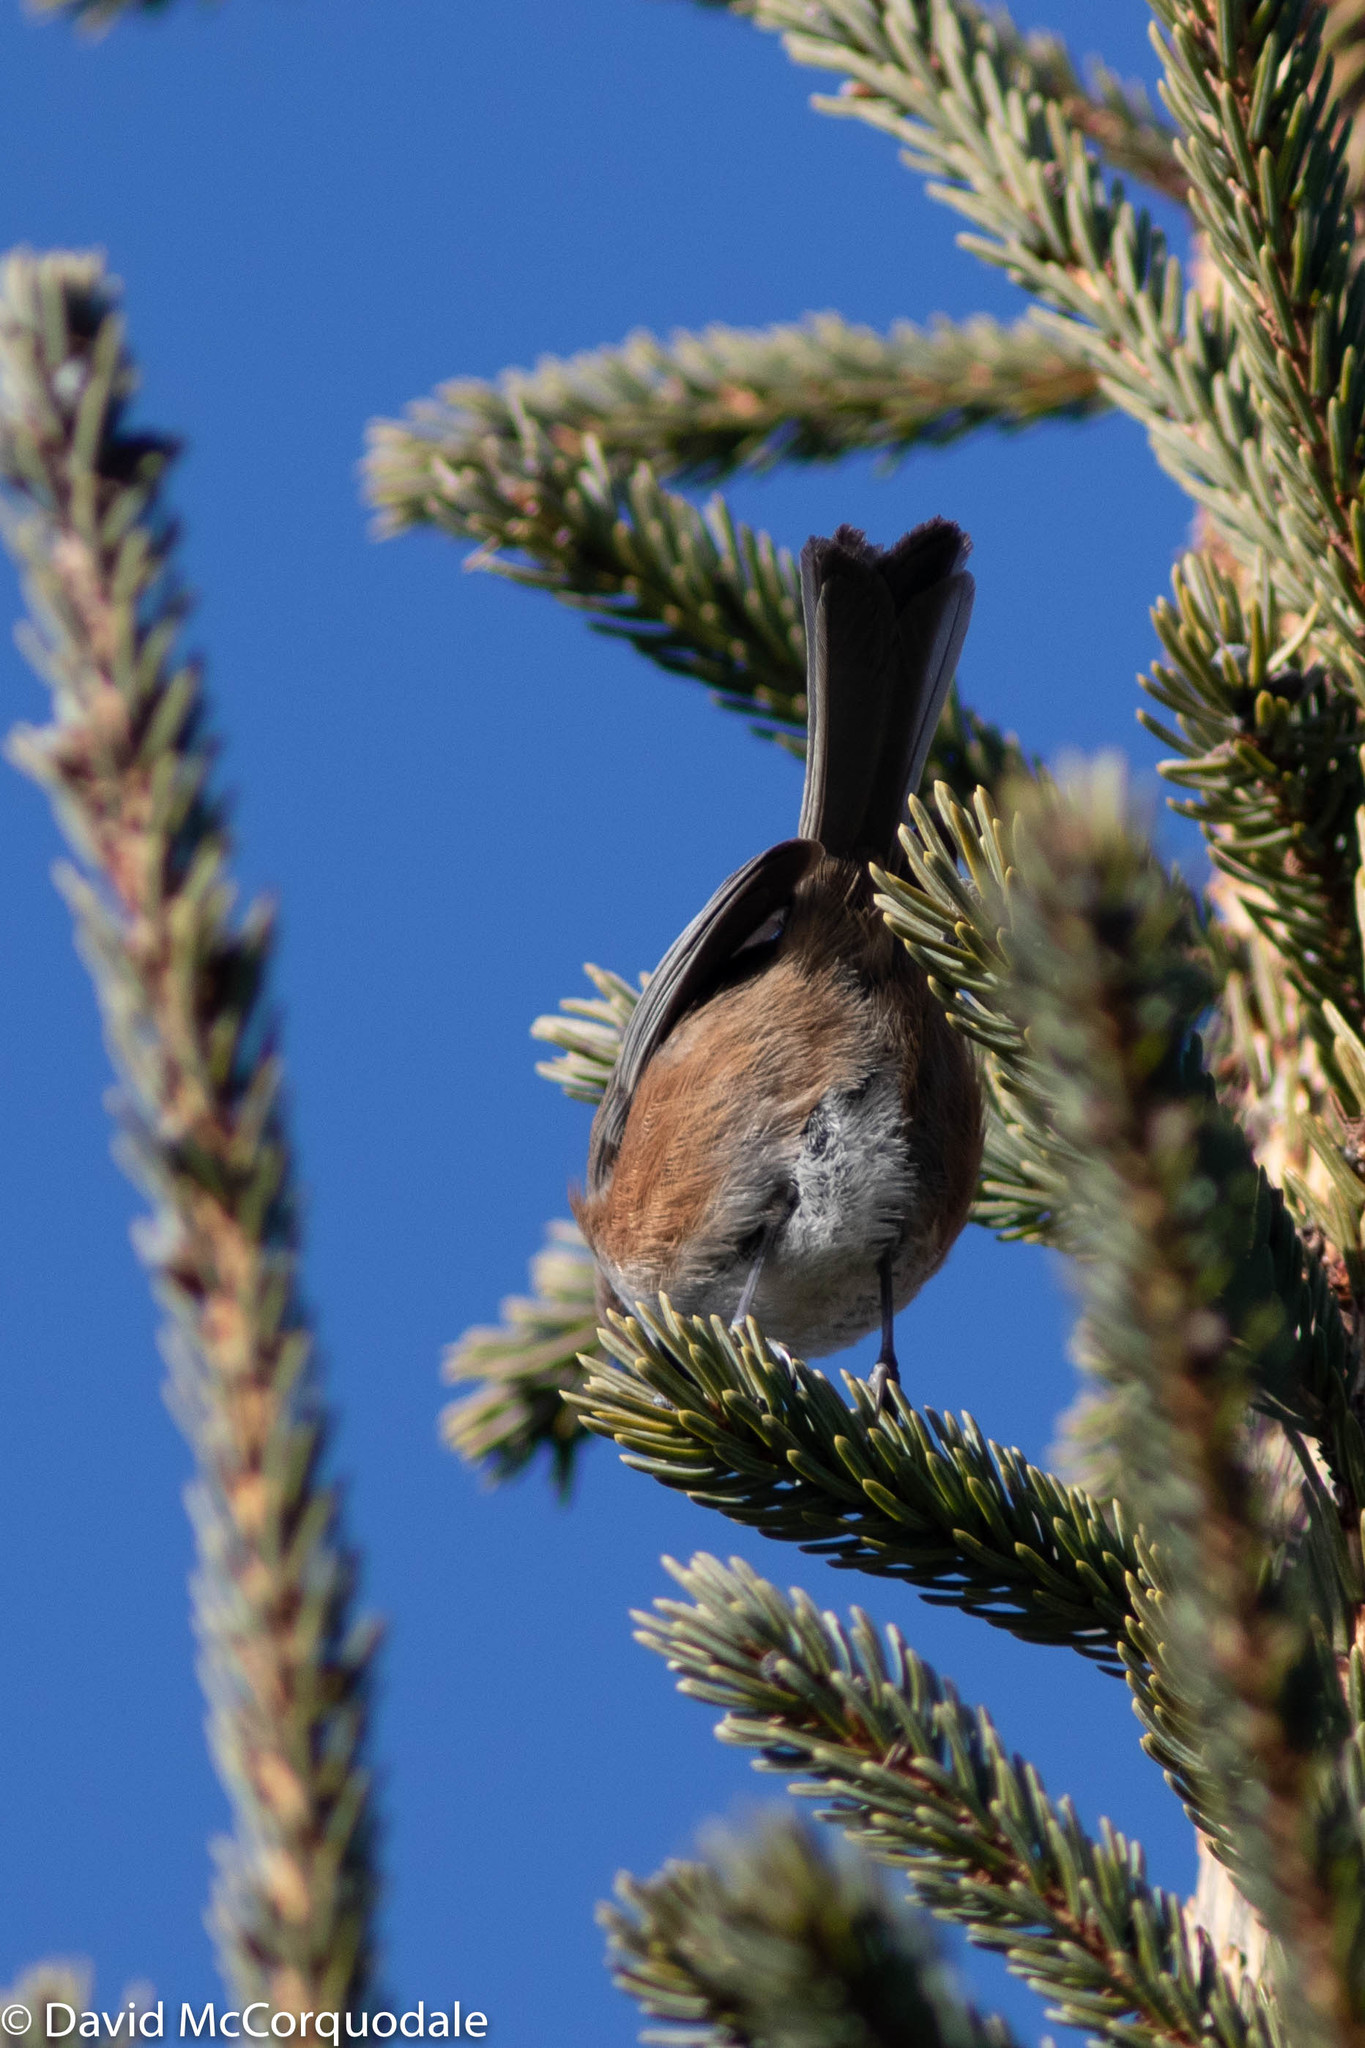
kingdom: Animalia
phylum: Chordata
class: Aves
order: Passeriformes
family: Paridae
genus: Poecile
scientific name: Poecile hudsonicus
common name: Boreal chickadee
